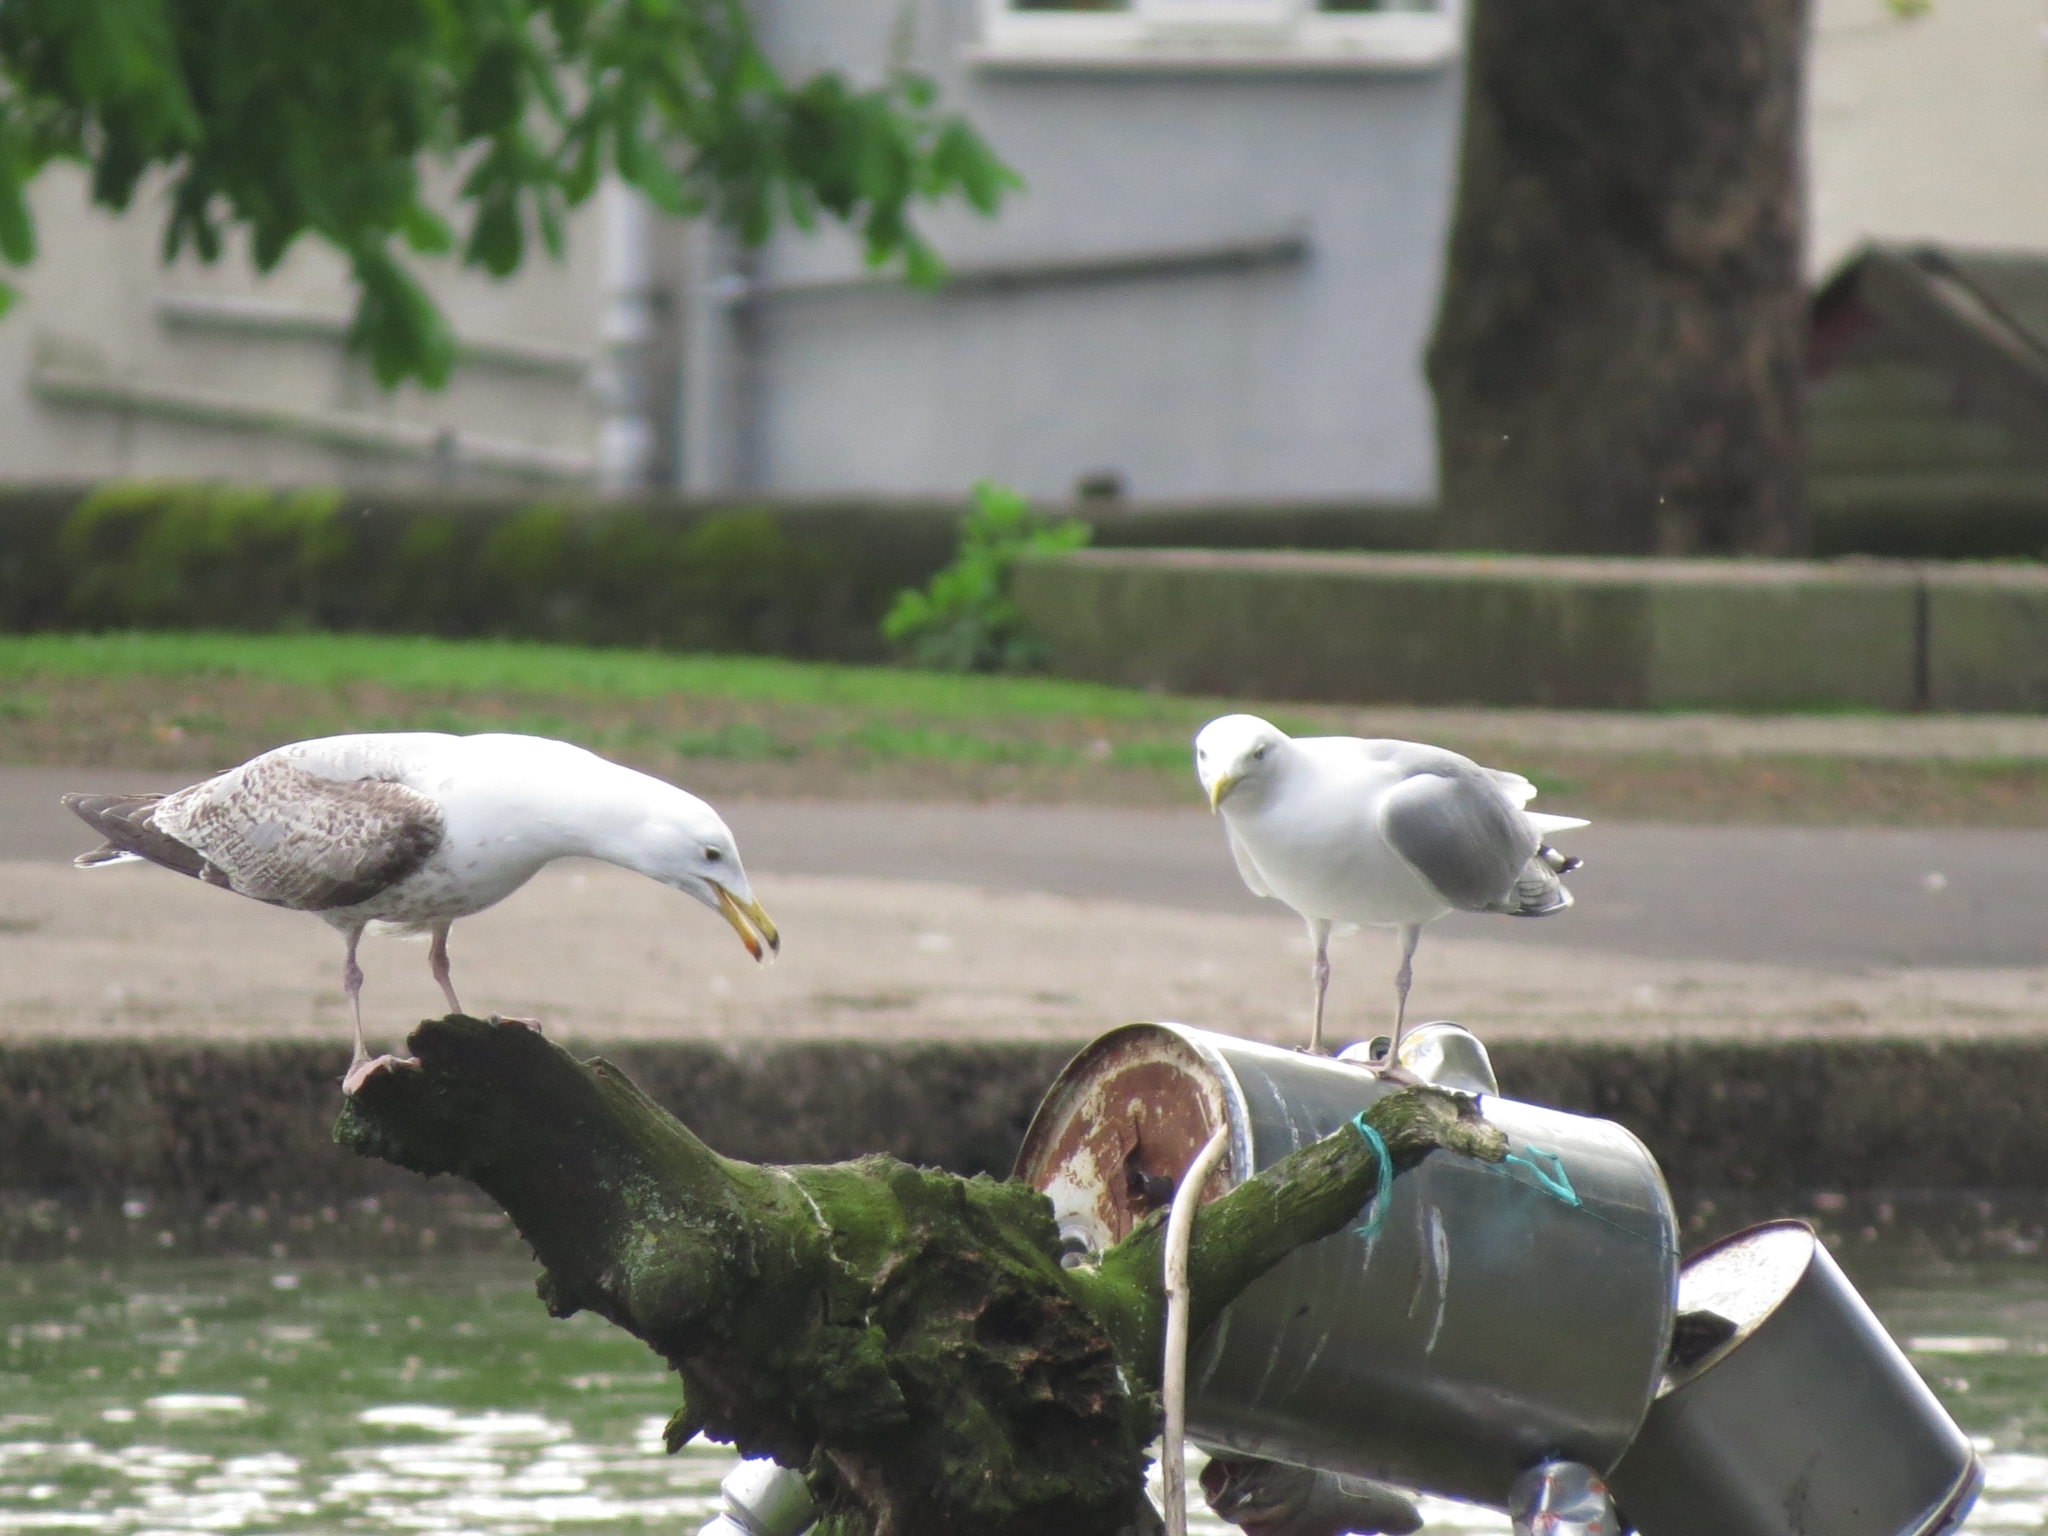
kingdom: Animalia
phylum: Chordata
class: Aves
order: Charadriiformes
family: Laridae
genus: Larus
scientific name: Larus argentatus
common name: Herring gull
